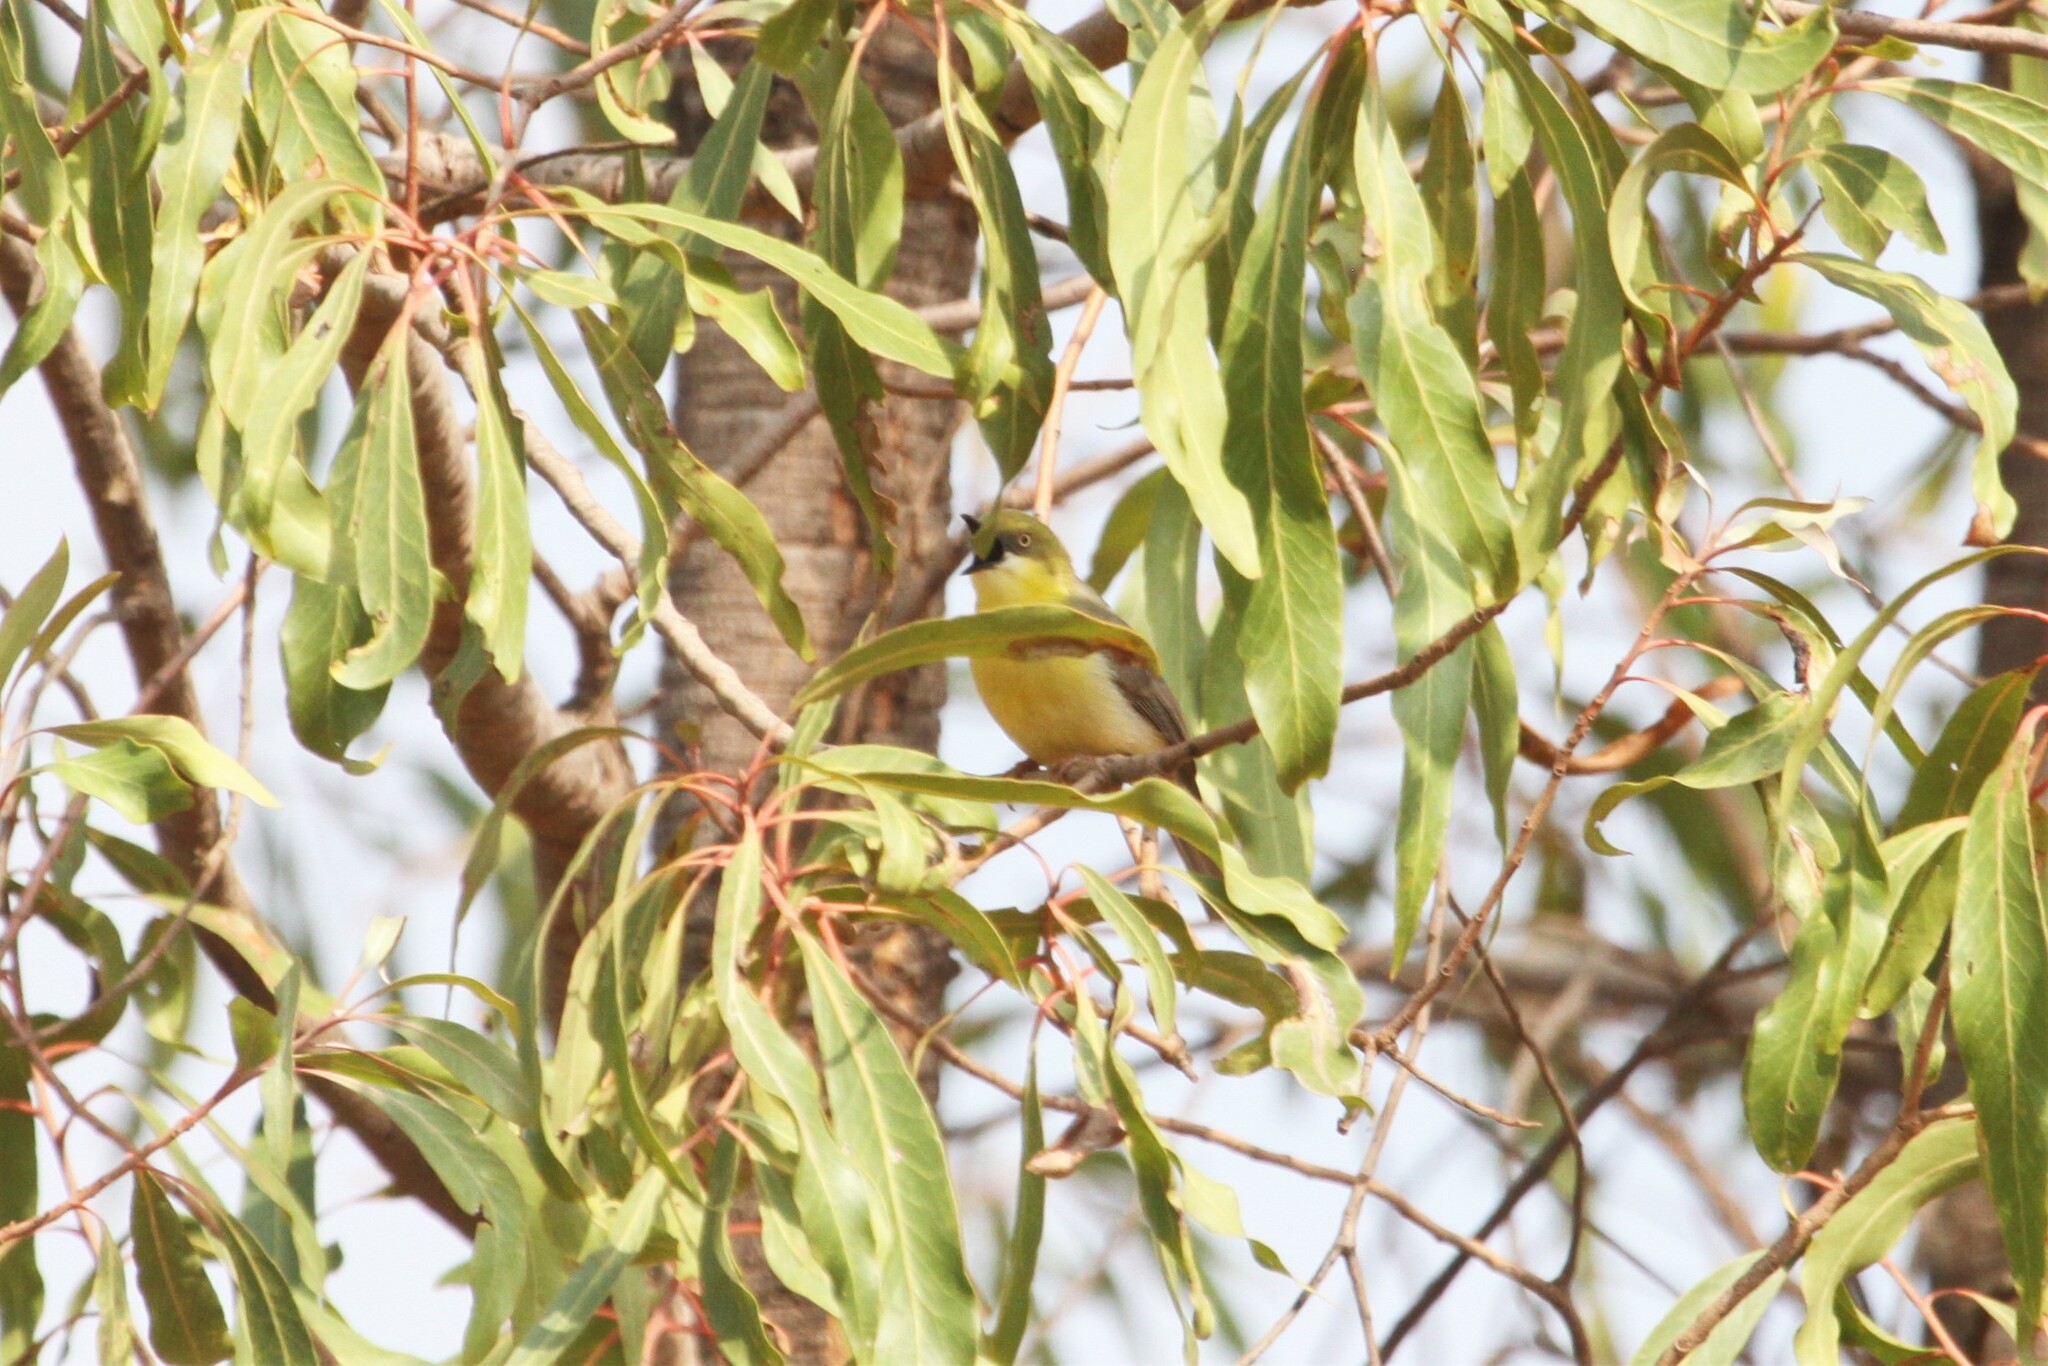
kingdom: Animalia
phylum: Chordata
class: Aves
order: Passeriformes
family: Cisticolidae
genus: Eremomela
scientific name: Eremomela scotops
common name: Green-capped eremomela
